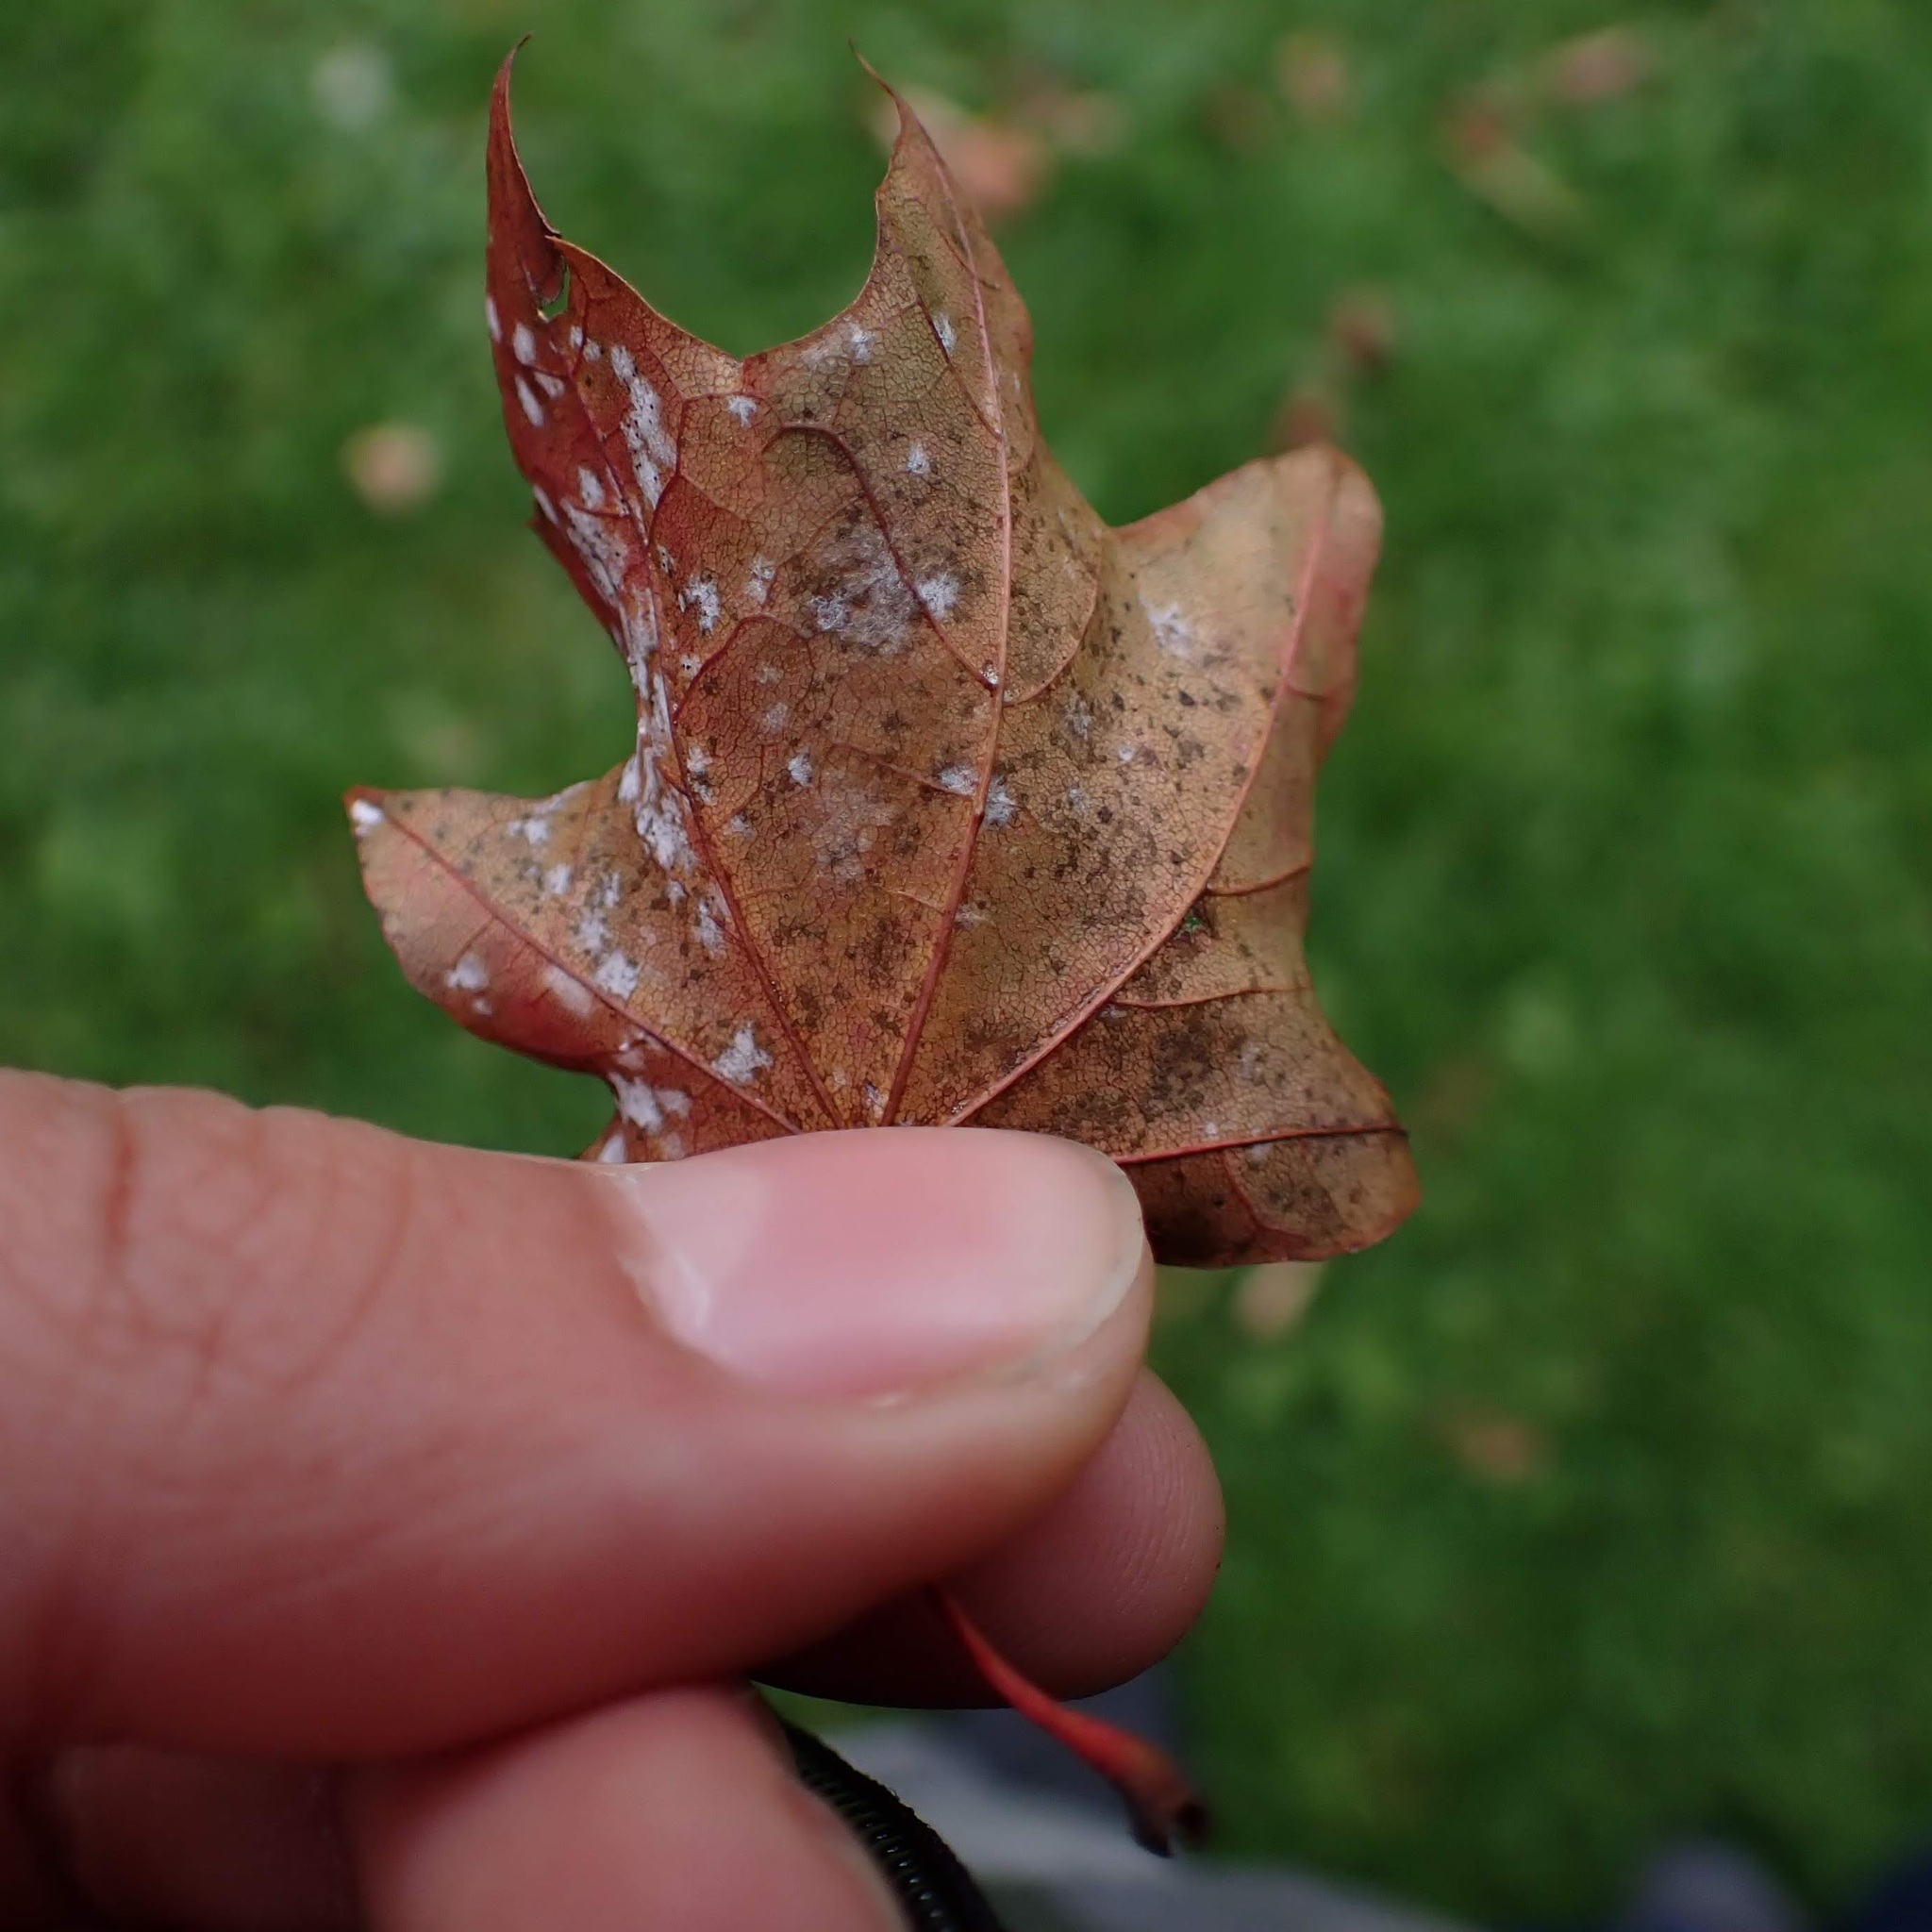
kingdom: Fungi
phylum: Ascomycota
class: Leotiomycetes
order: Helotiales
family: Erysiphaceae
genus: Sawadaea
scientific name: Sawadaea tulasnei
